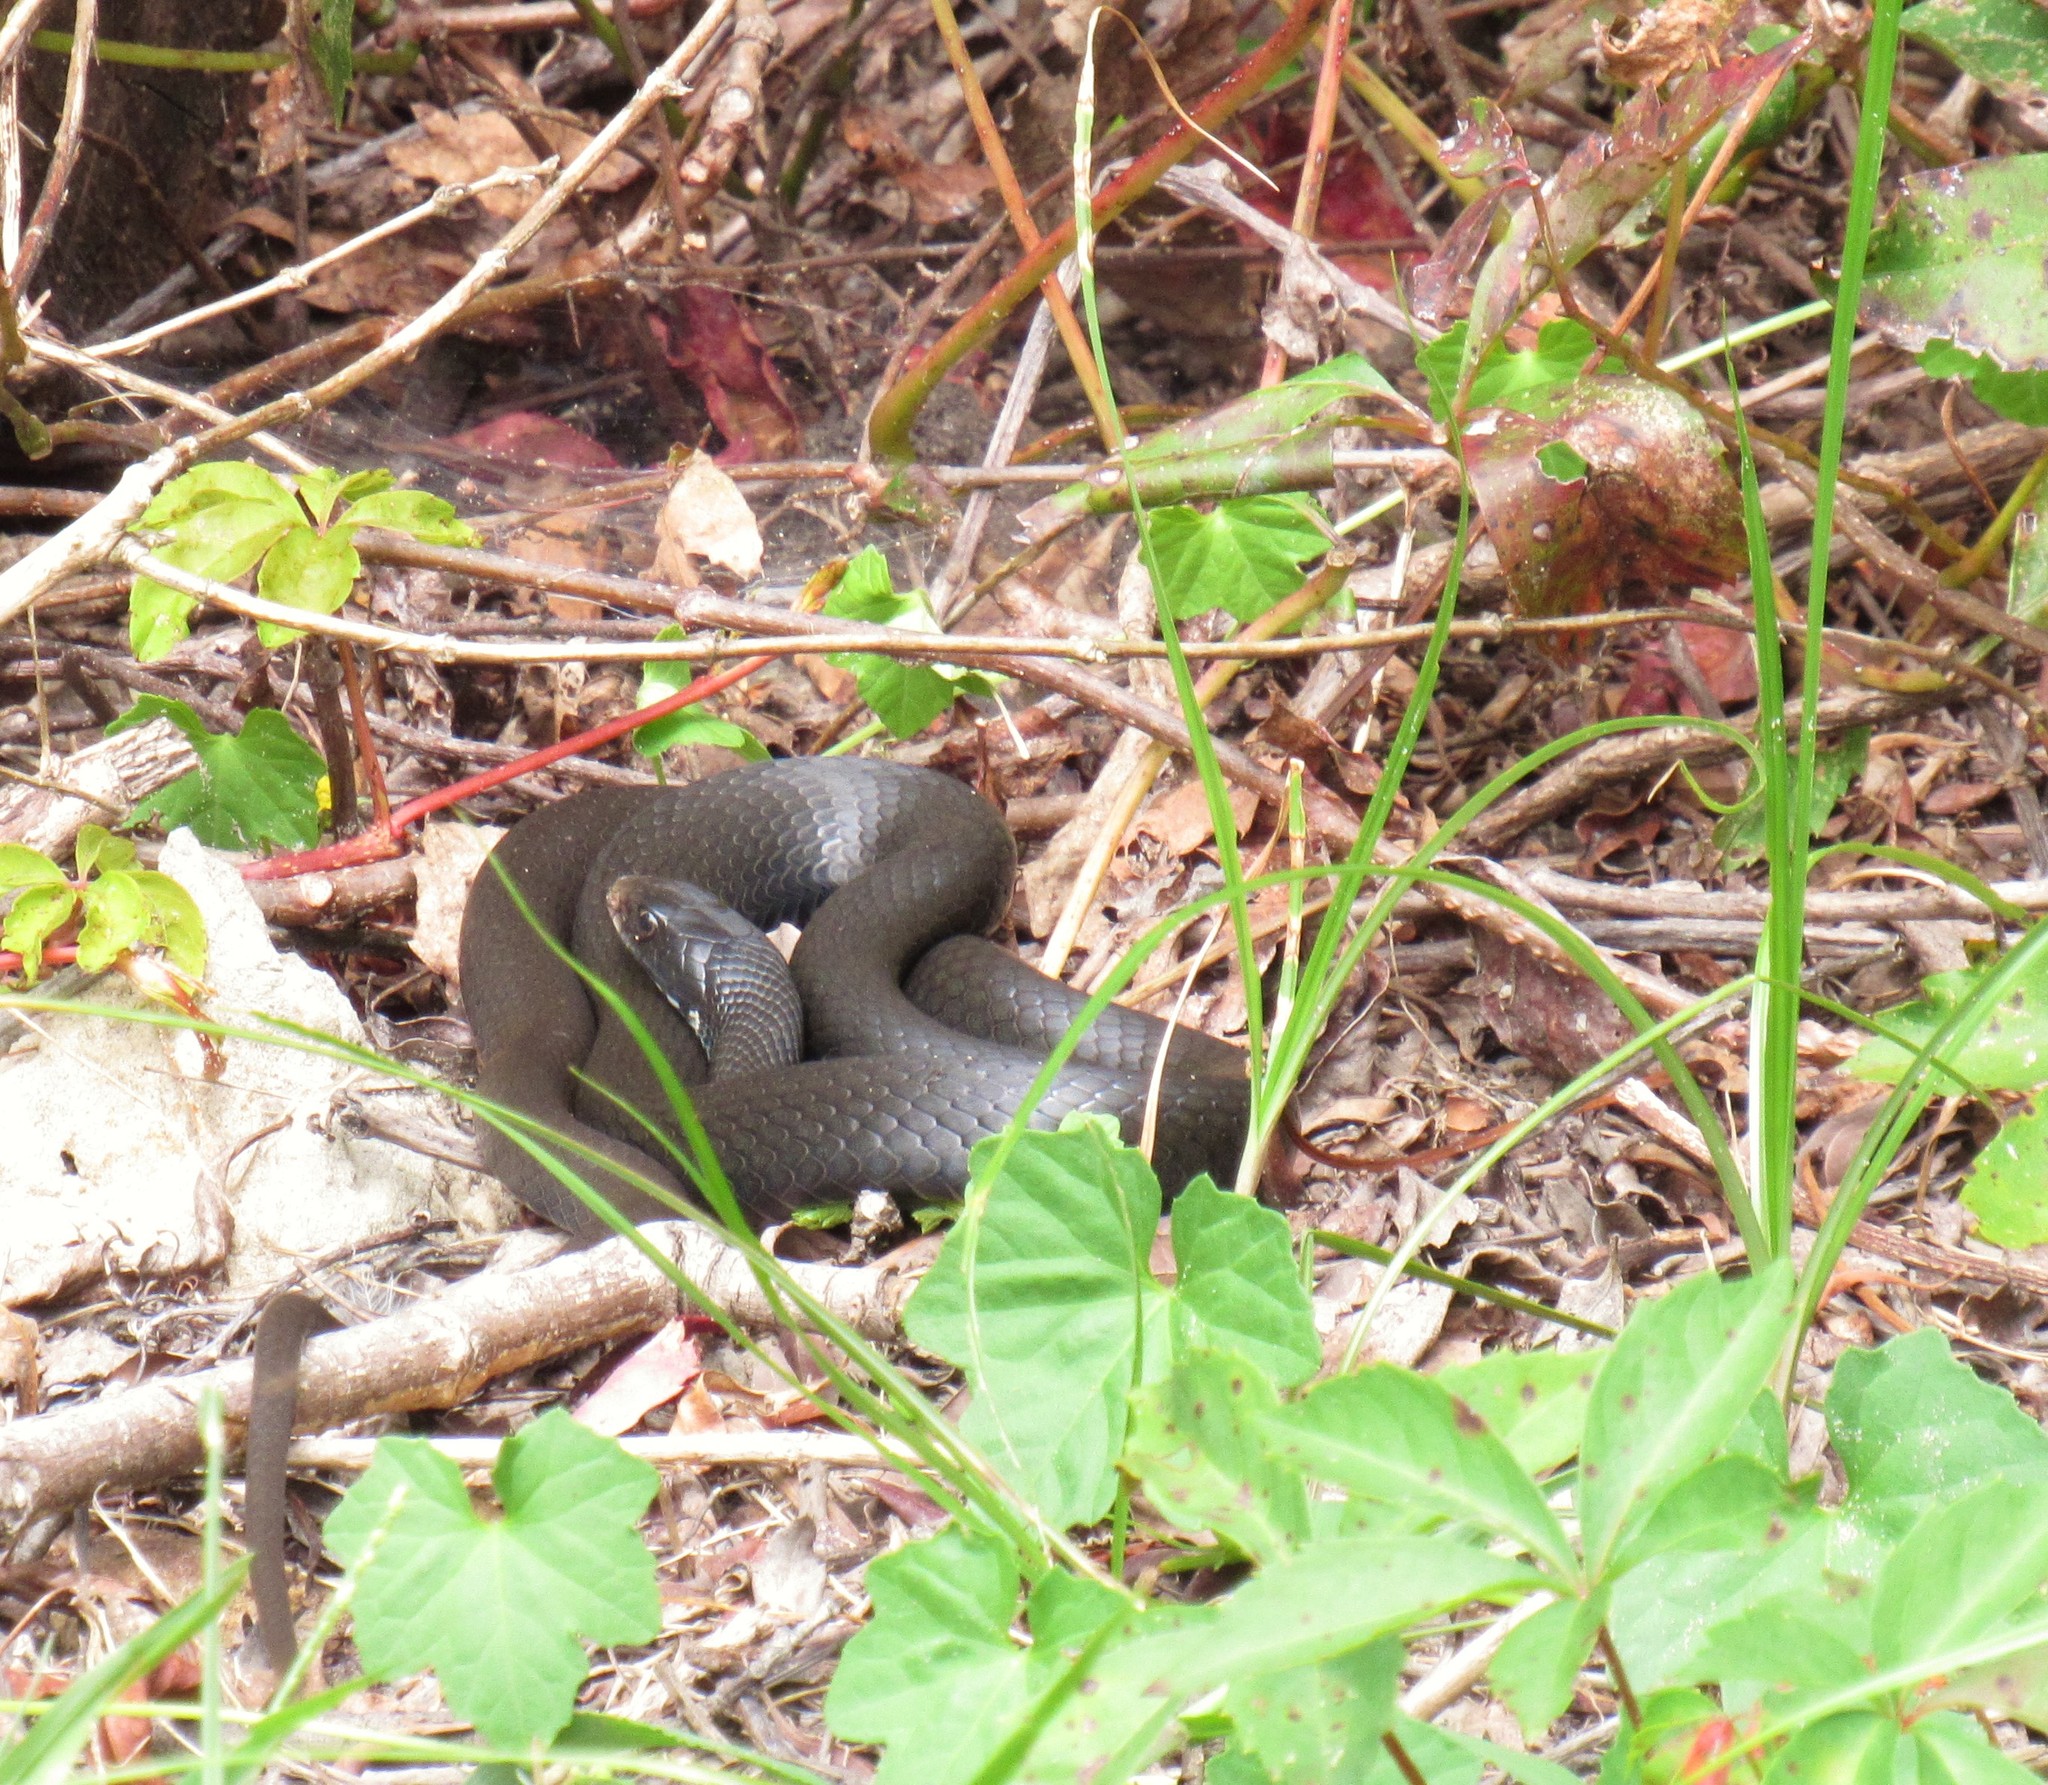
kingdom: Animalia
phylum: Chordata
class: Squamata
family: Colubridae
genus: Coluber
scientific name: Coluber constrictor
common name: Eastern racer
